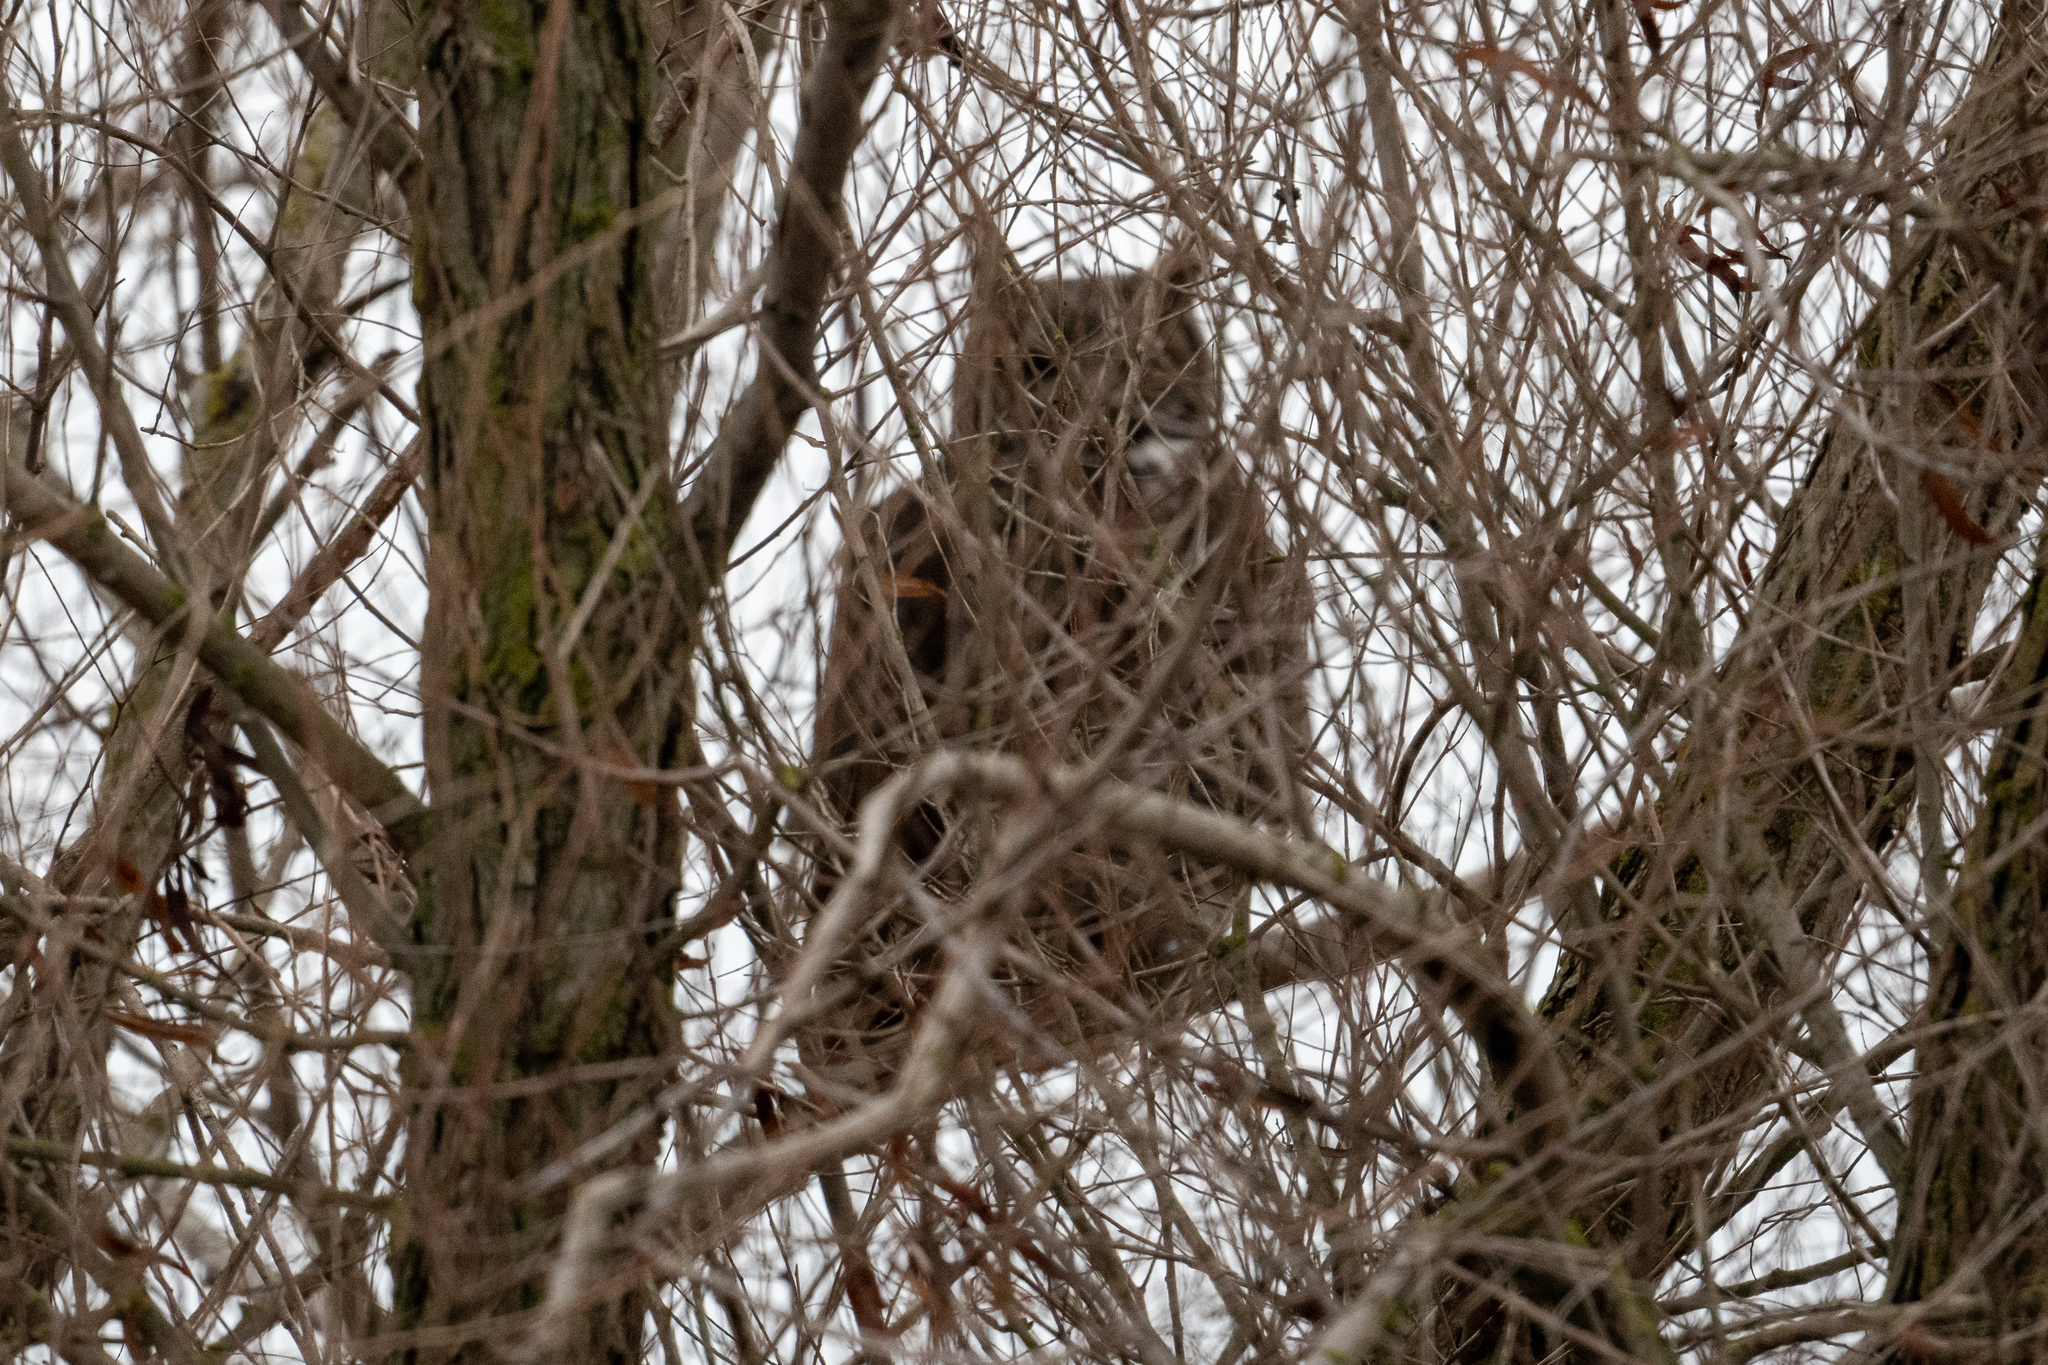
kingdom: Animalia
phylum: Chordata
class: Aves
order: Strigiformes
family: Strigidae
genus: Bubo
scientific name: Bubo virginianus
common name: Great horned owl
